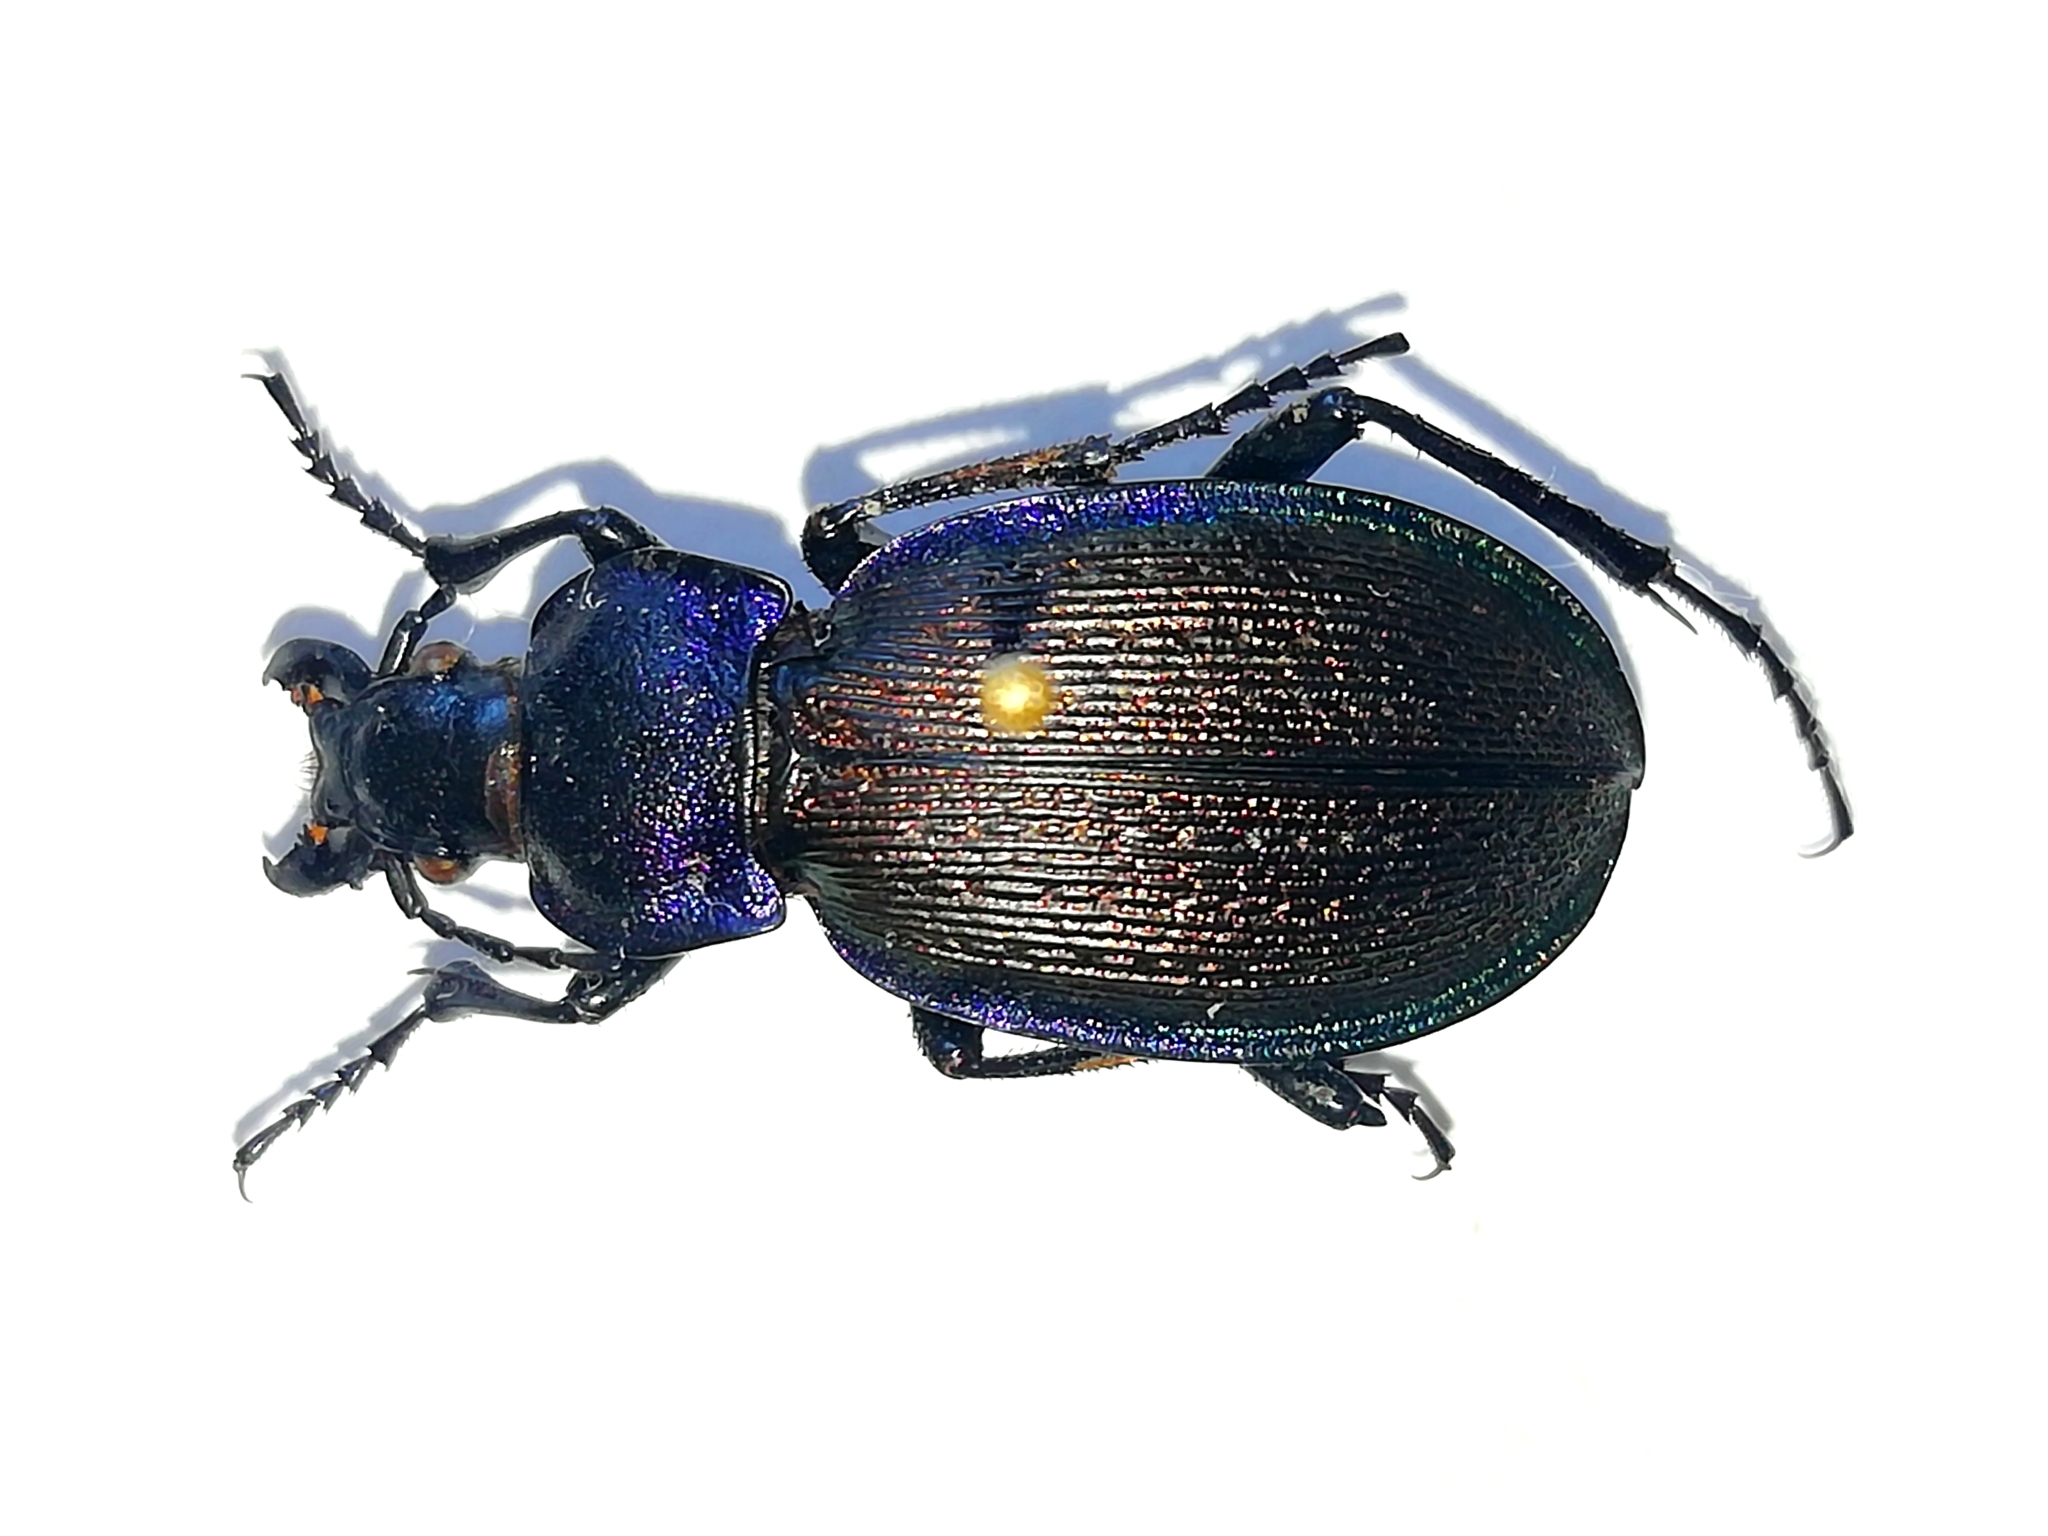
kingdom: Animalia
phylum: Arthropoda
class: Insecta
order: Coleoptera
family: Carabidae
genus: Carabus
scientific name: Carabus regalis
